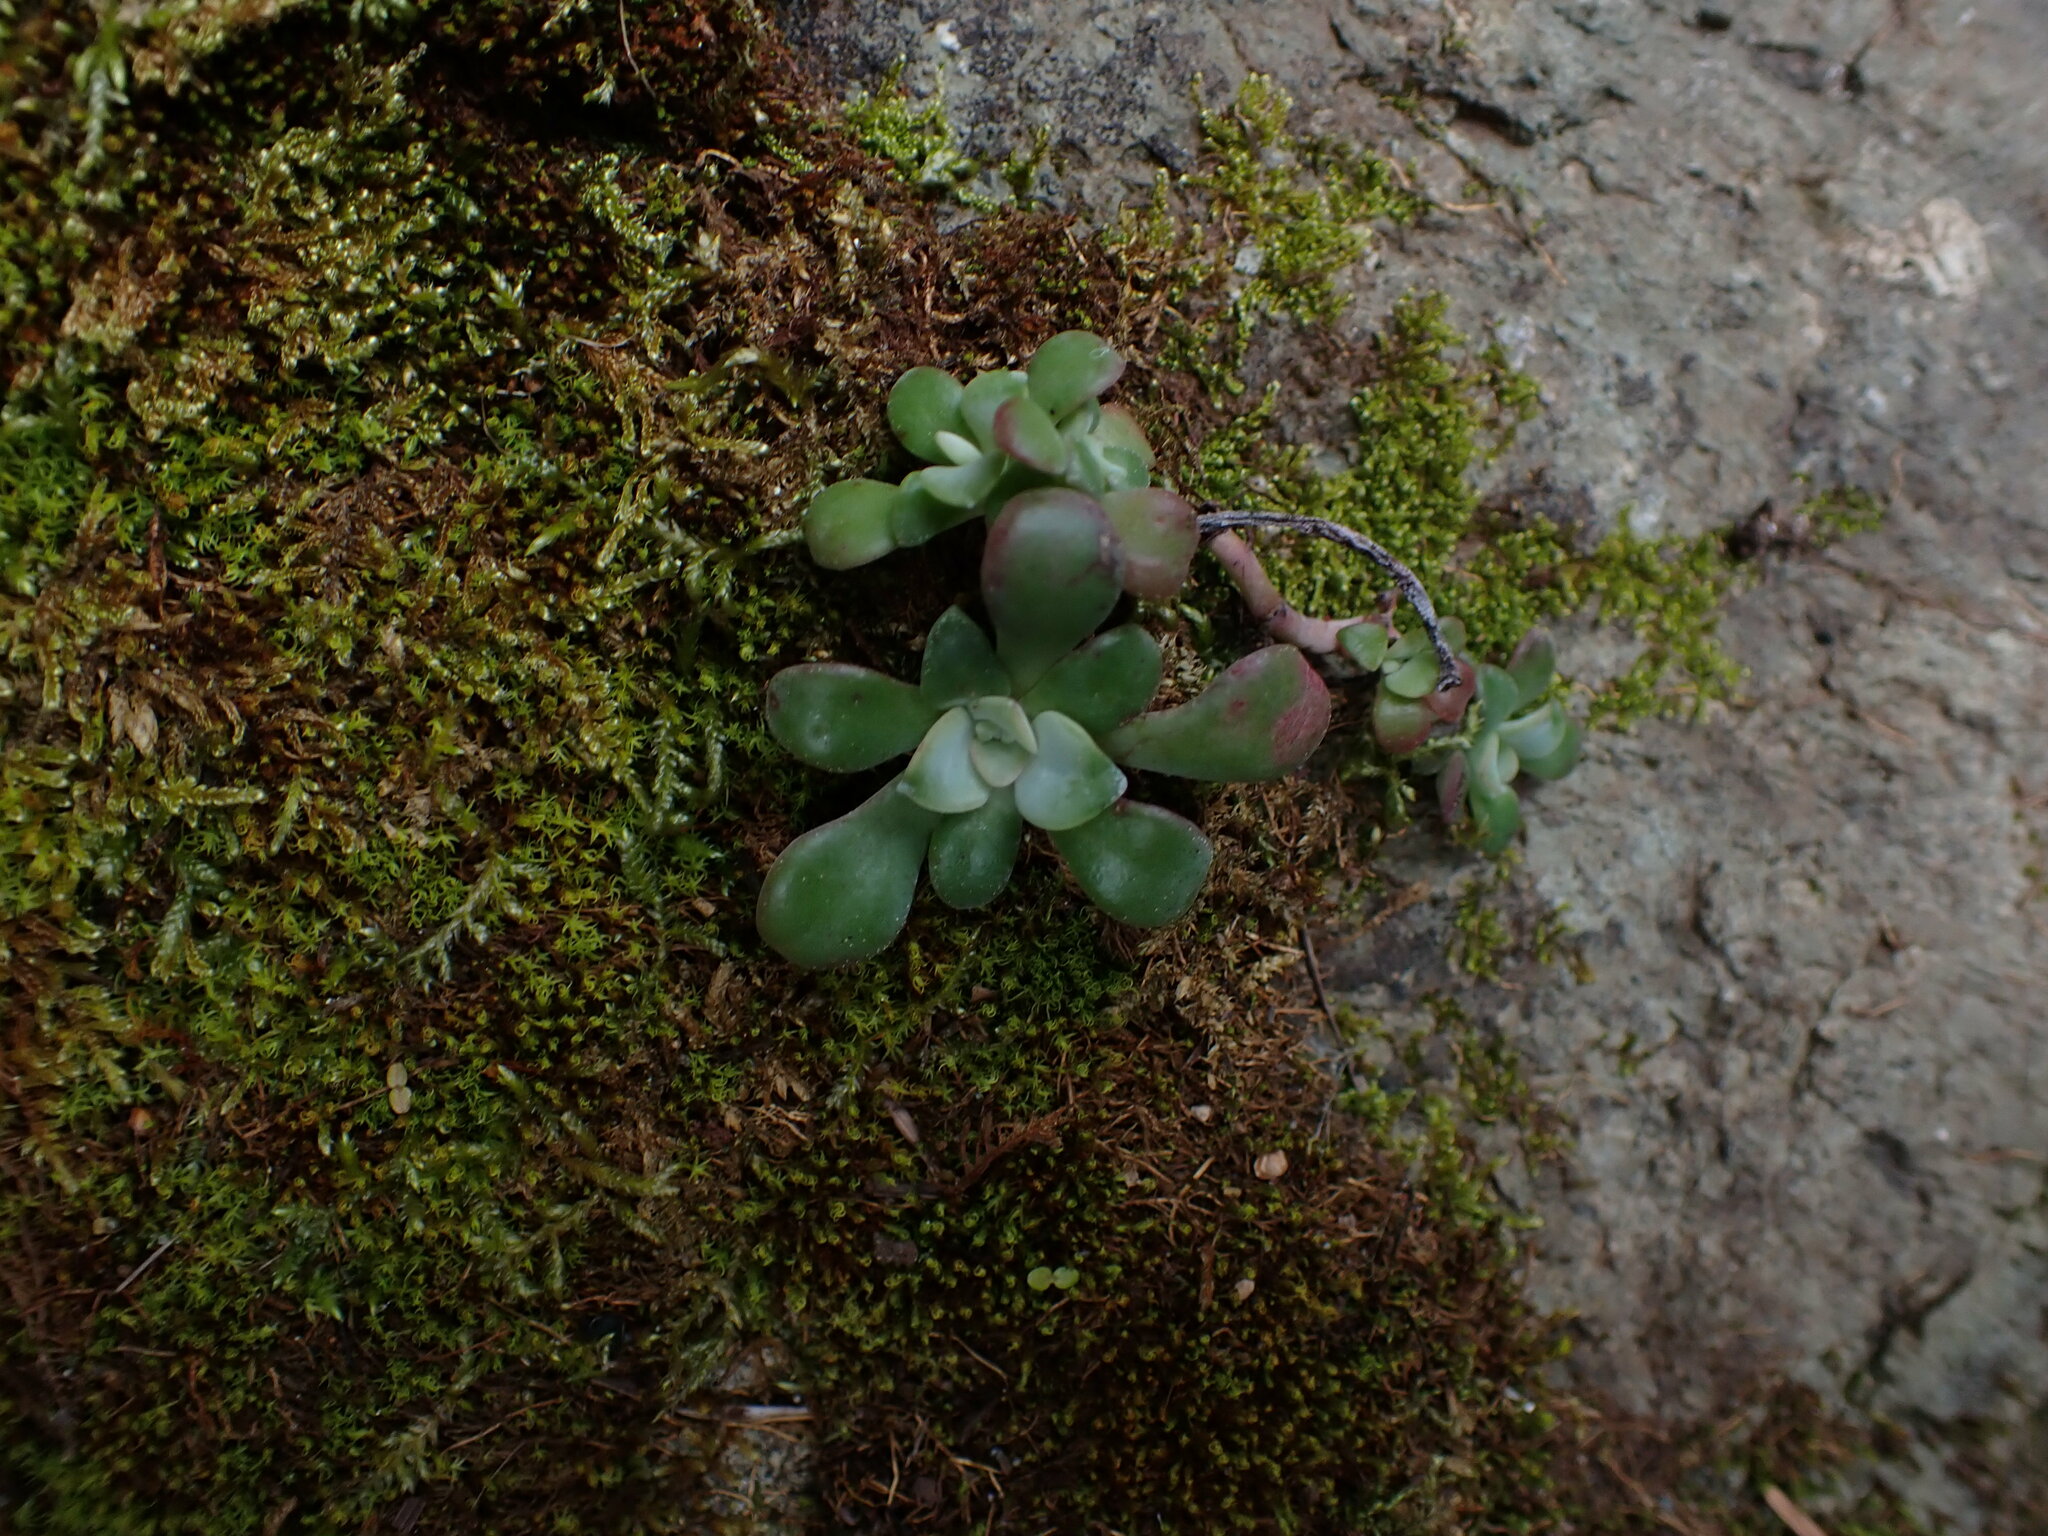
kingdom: Plantae
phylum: Tracheophyta
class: Magnoliopsida
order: Saxifragales
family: Crassulaceae
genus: Sedum
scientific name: Sedum spathulifolium
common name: Colorado stonecrop
